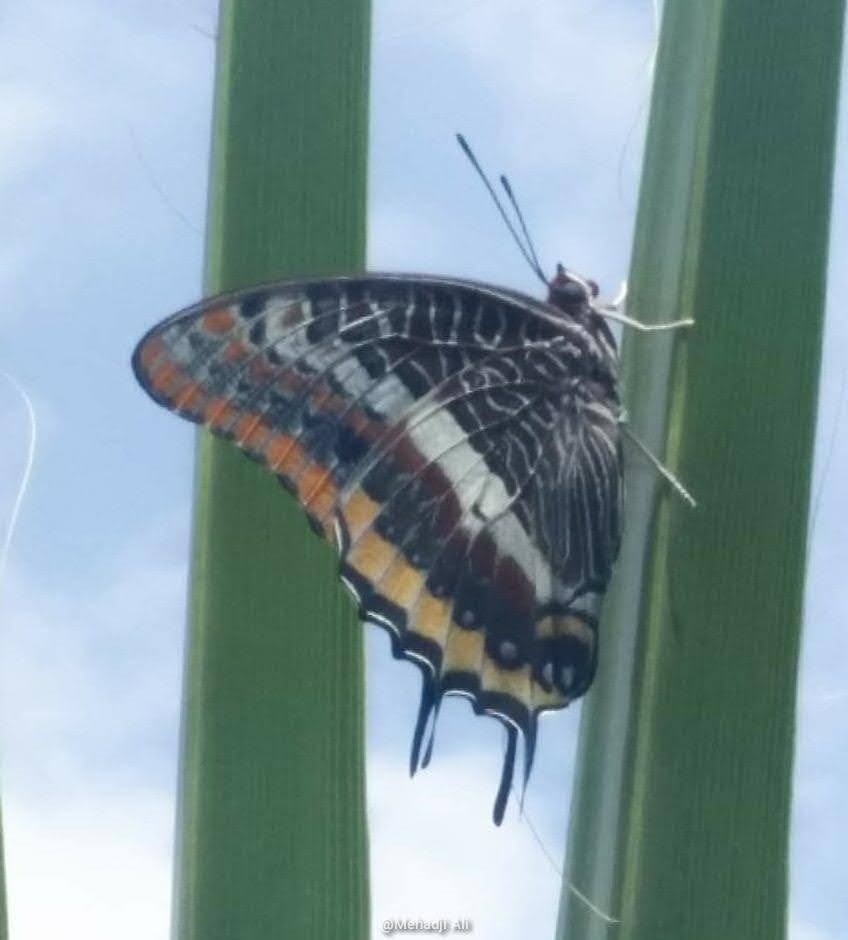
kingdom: Animalia
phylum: Arthropoda
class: Insecta
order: Lepidoptera
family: Nymphalidae
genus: Charaxes
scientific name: Charaxes jasius
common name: Two tailed pasha
